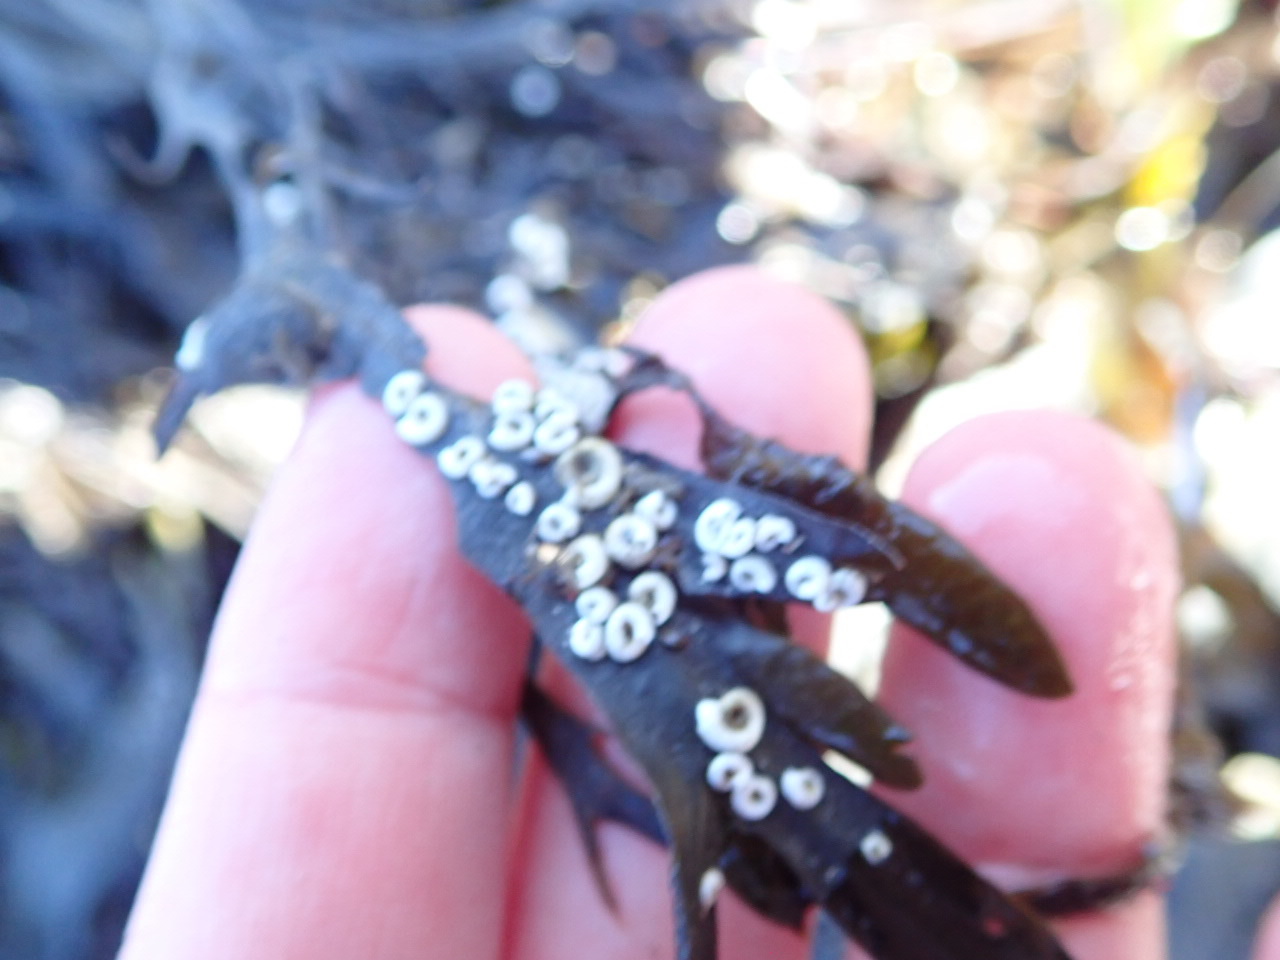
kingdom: Animalia
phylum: Annelida
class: Polychaeta
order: Sabellida
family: Serpulidae
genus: Spirorbis
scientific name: Spirorbis spirorbis
